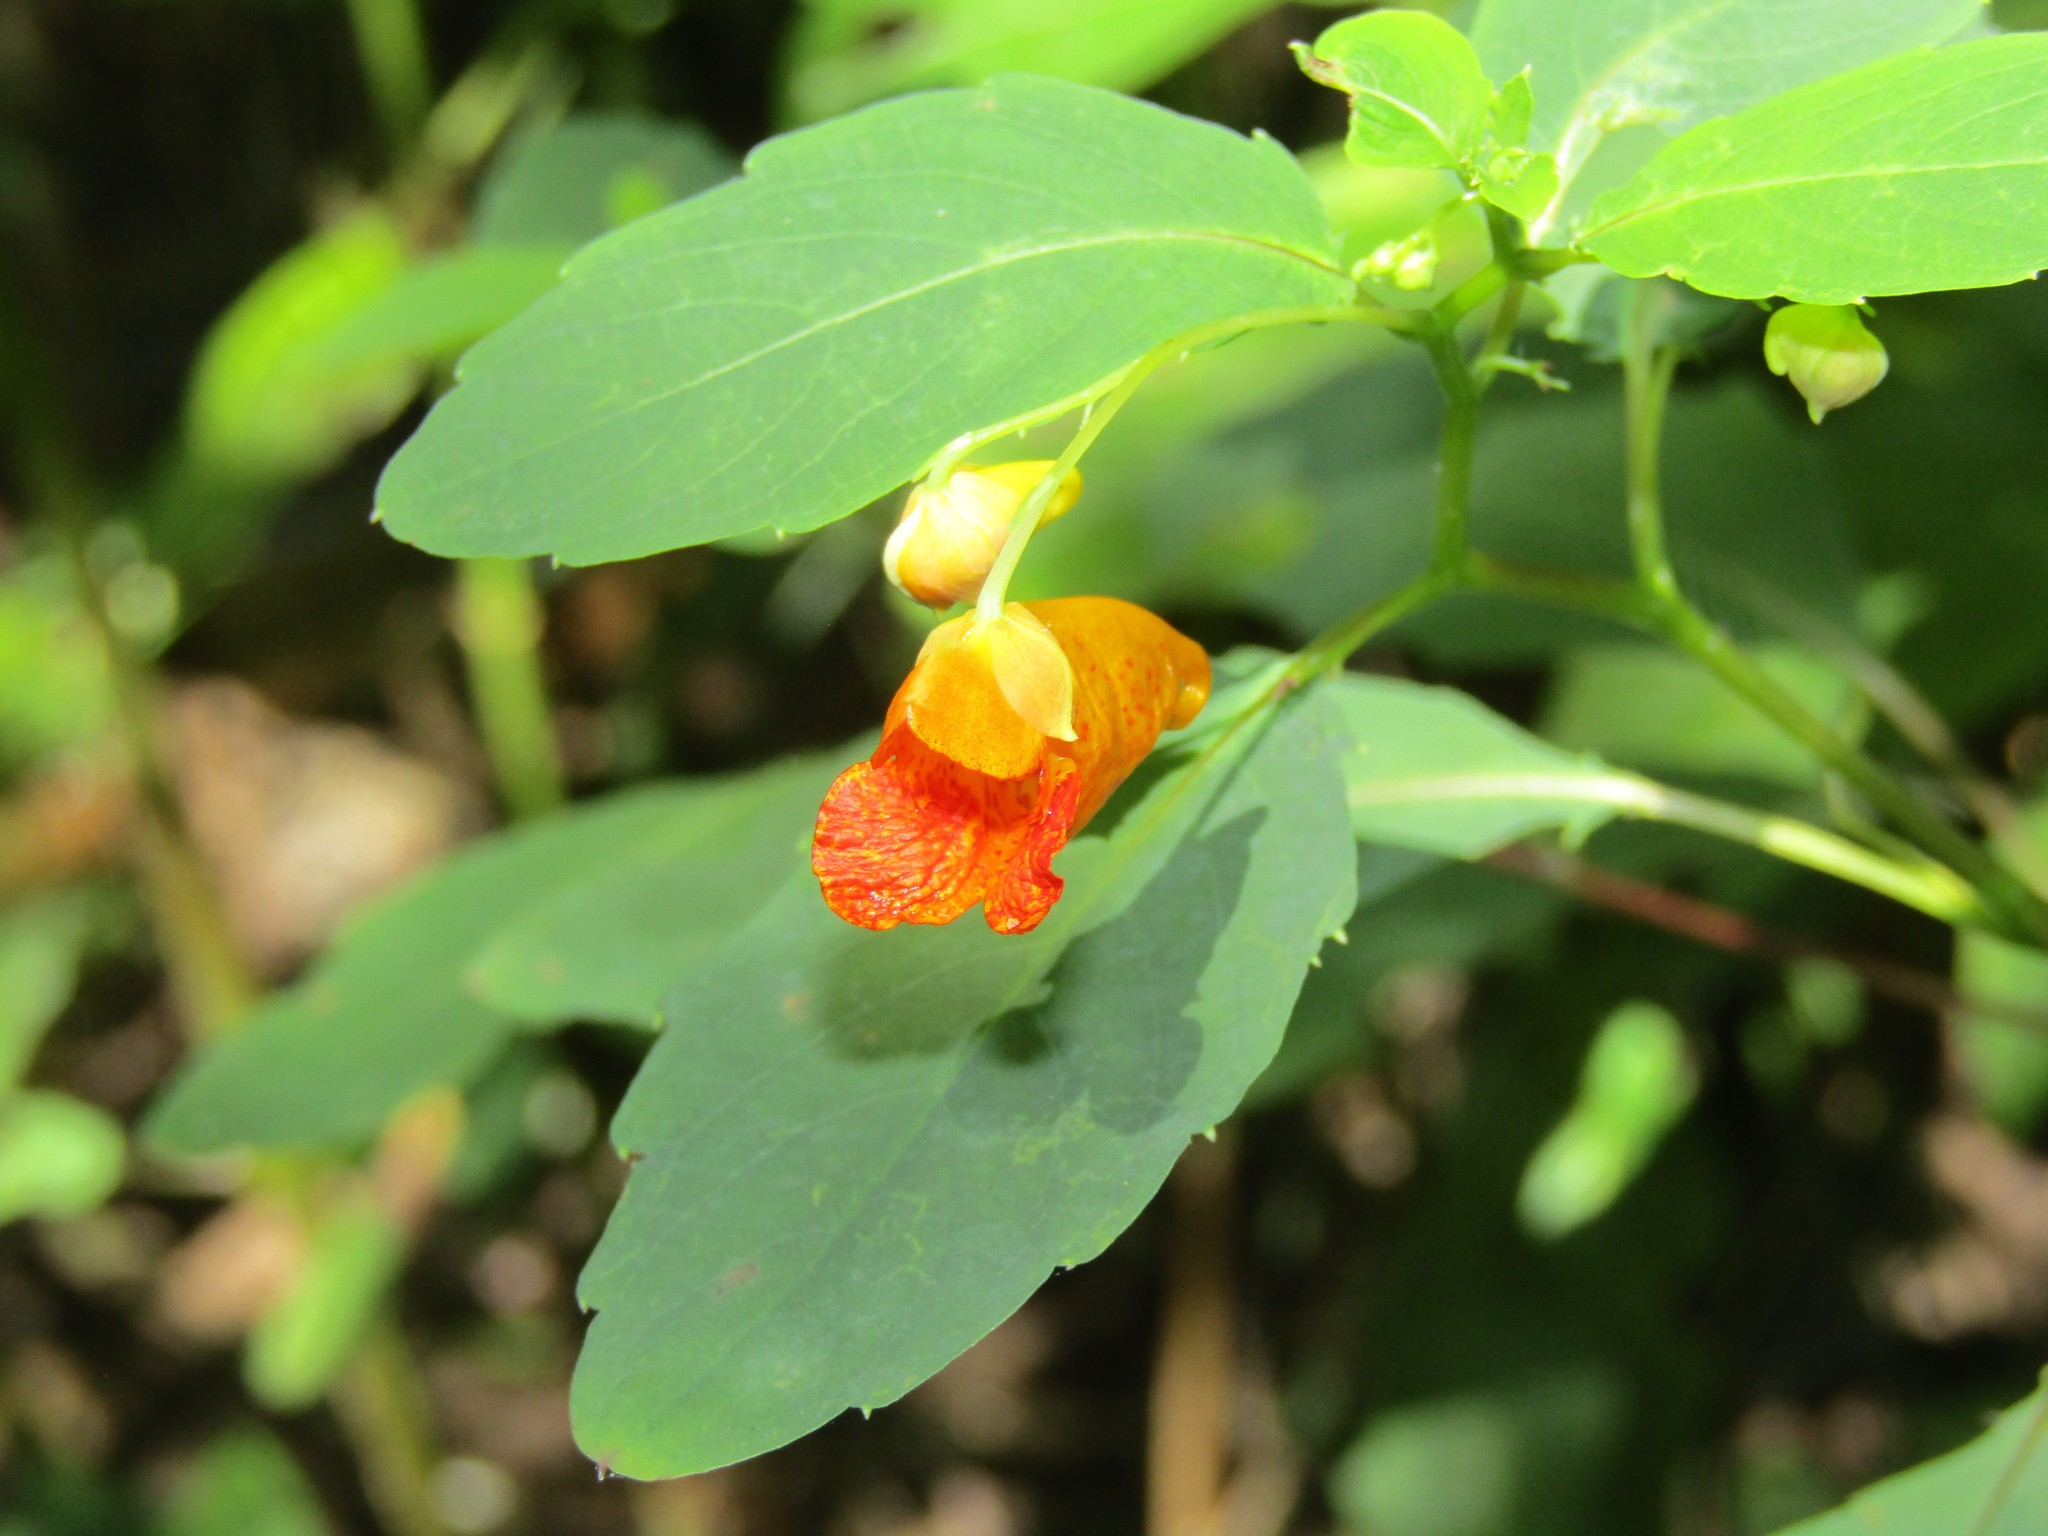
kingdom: Plantae
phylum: Tracheophyta
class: Magnoliopsida
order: Ericales
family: Balsaminaceae
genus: Impatiens
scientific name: Impatiens capensis
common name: Orange balsam
